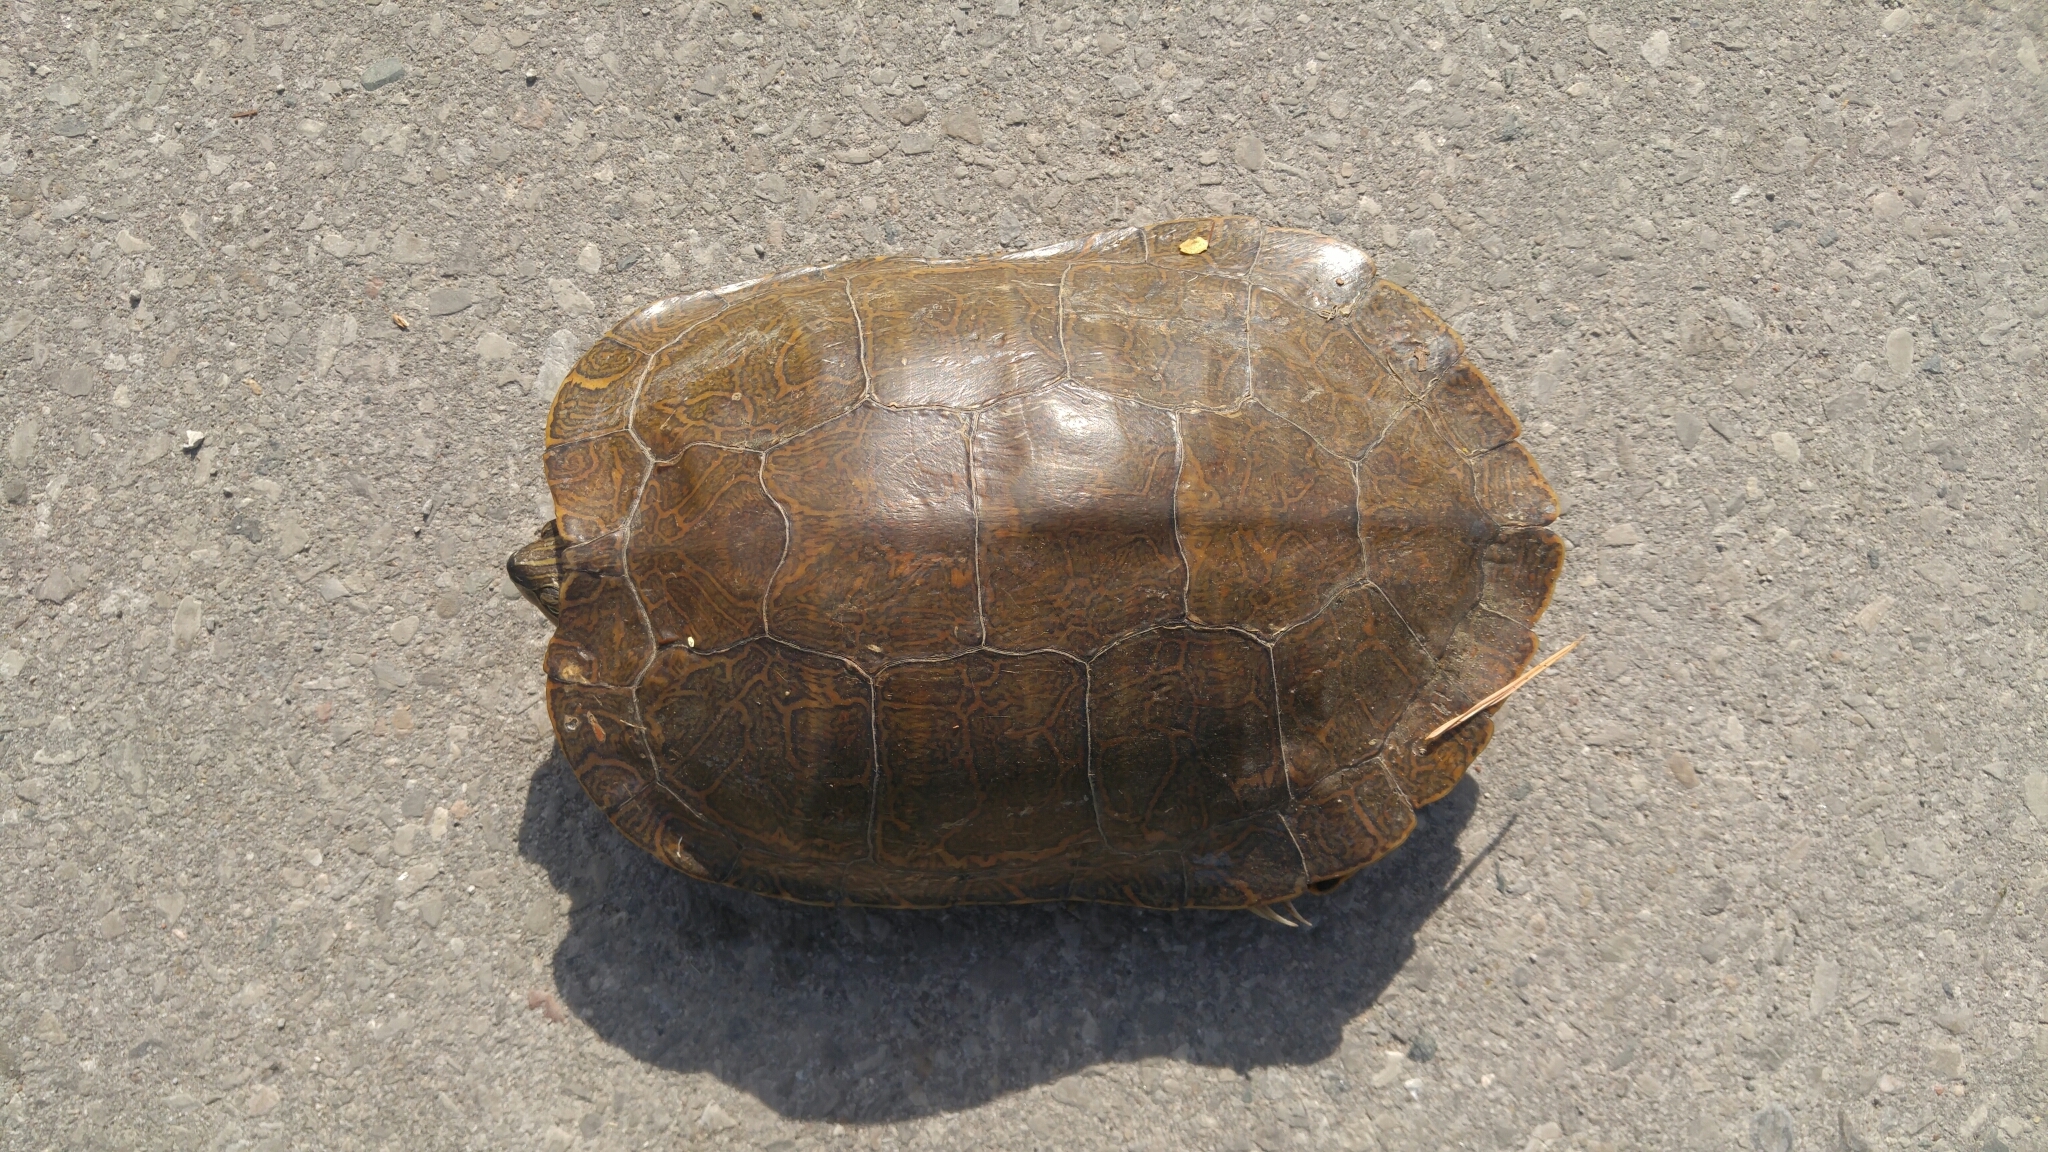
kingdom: Animalia
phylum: Chordata
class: Testudines
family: Emydidae
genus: Graptemys
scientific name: Graptemys geographica
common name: Common map turtle
